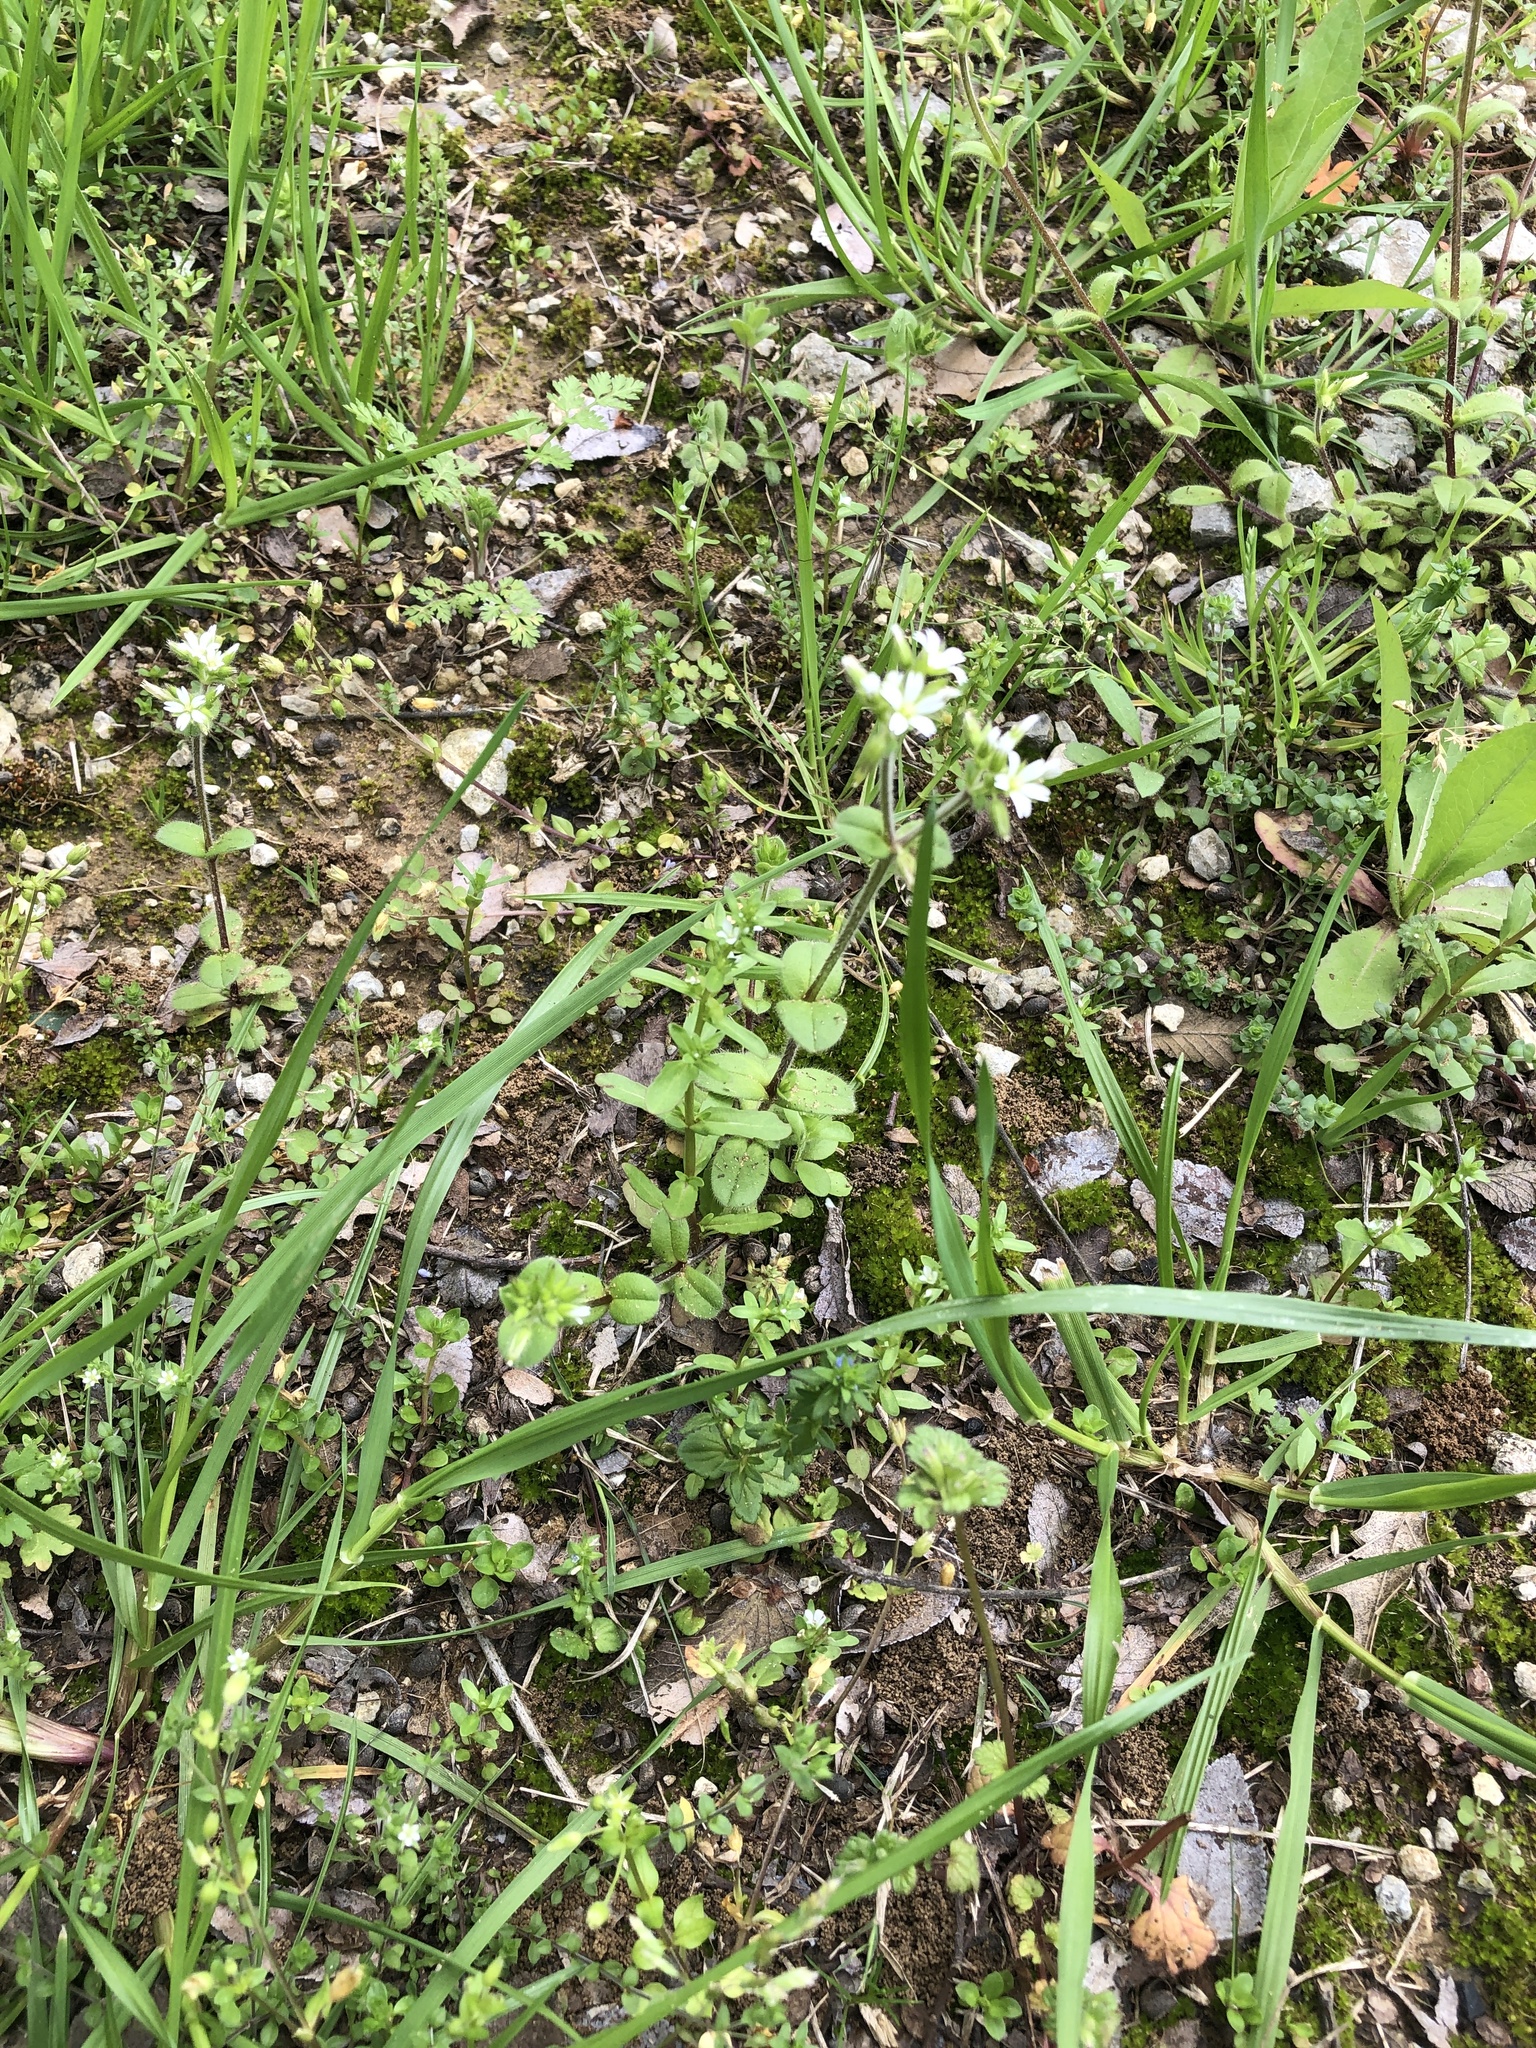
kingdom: Plantae
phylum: Tracheophyta
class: Magnoliopsida
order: Caryophyllales
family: Caryophyllaceae
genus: Cerastium
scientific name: Cerastium glomeratum
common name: Sticky chickweed
